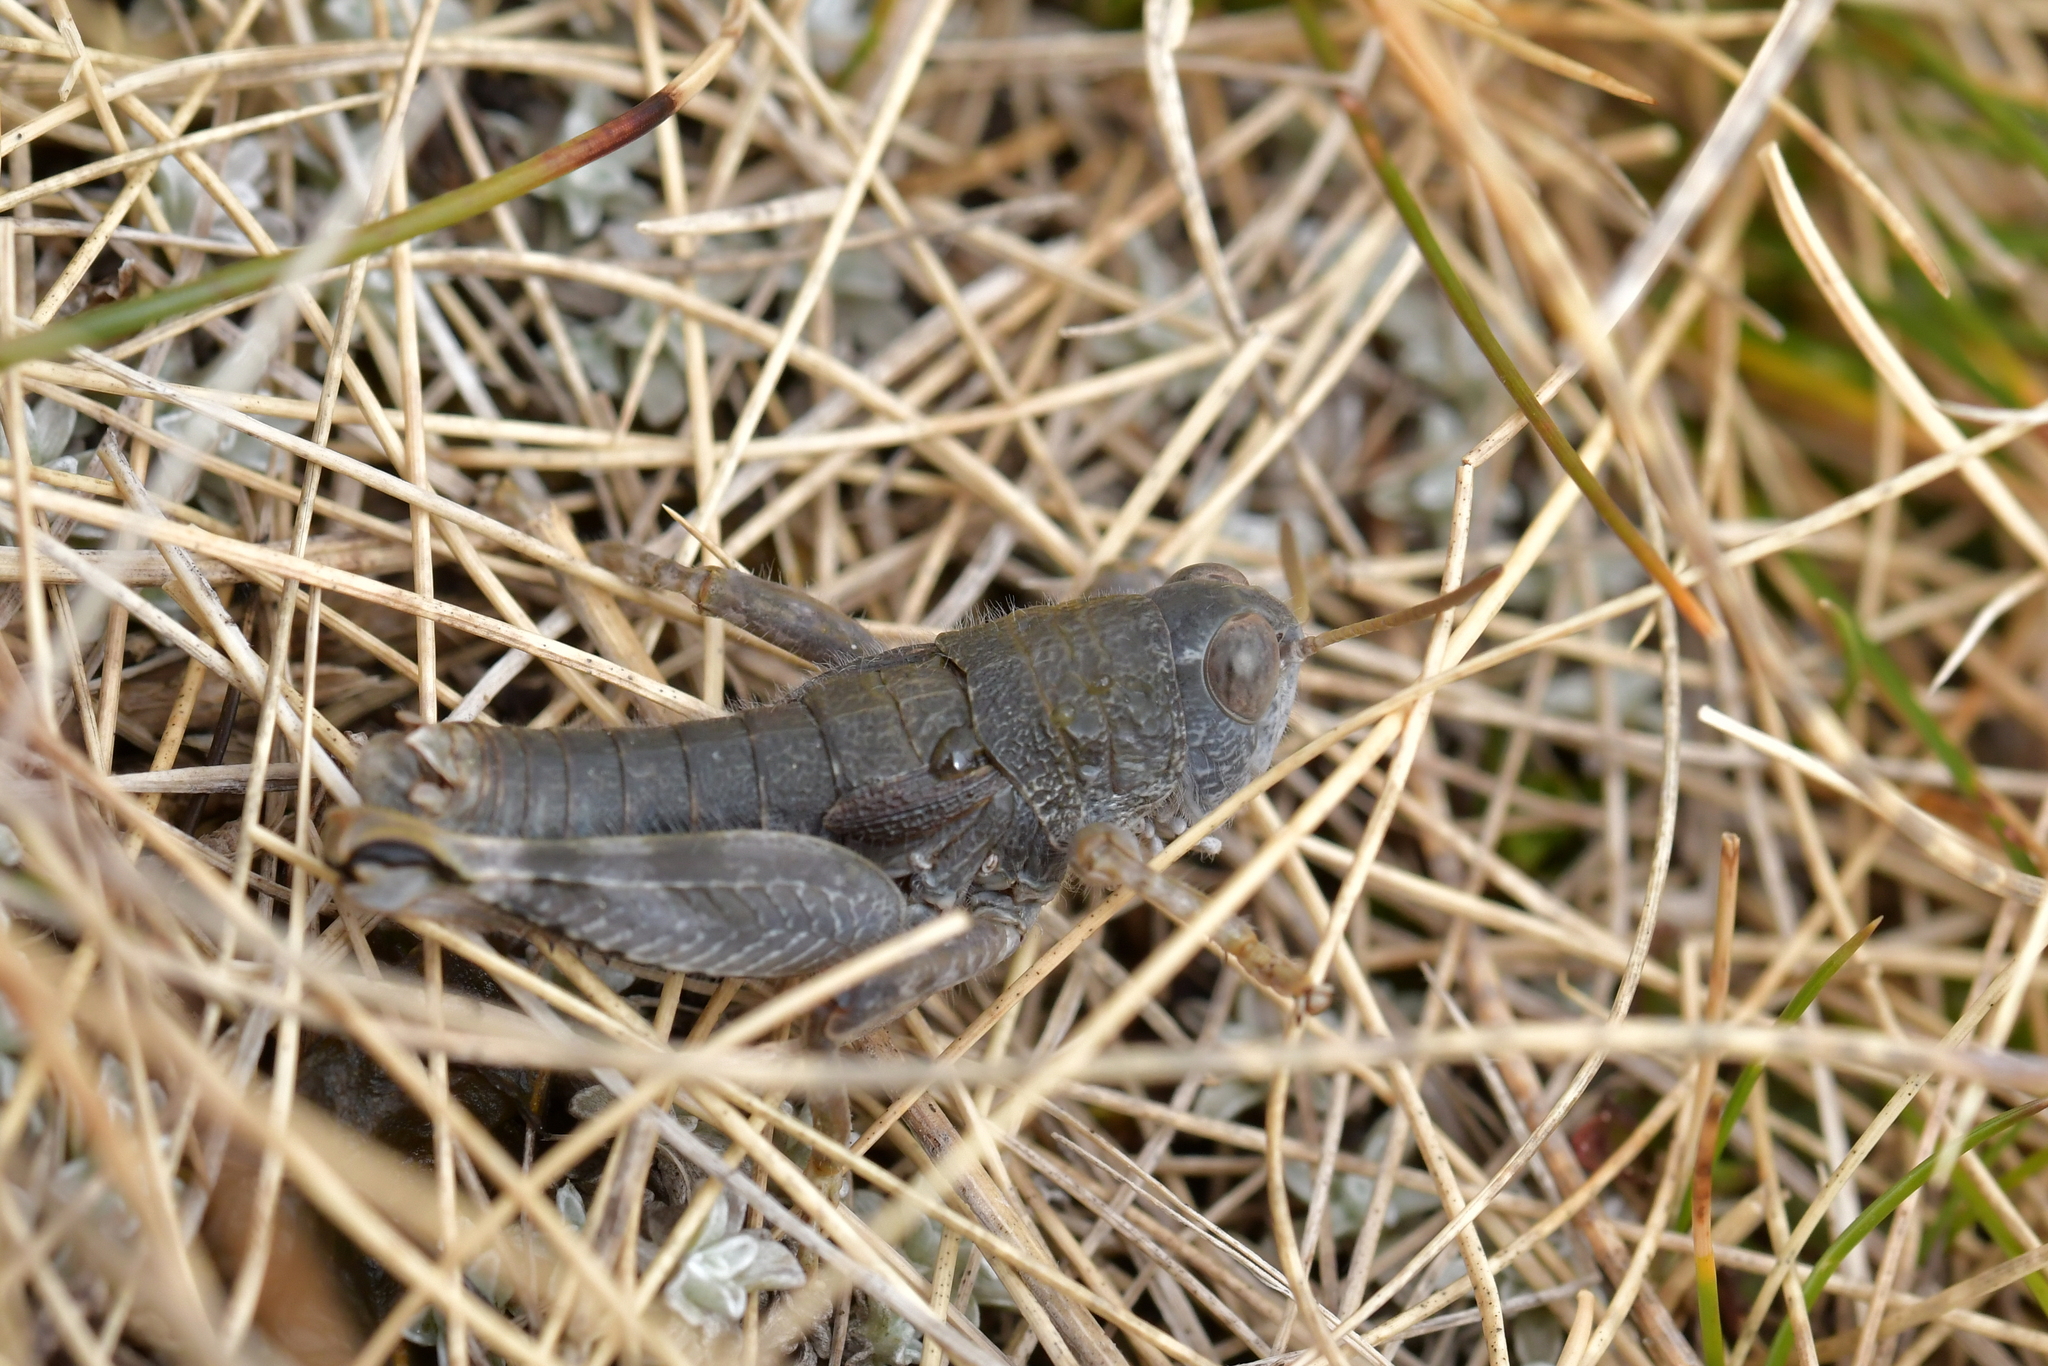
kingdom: Animalia
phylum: Arthropoda
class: Insecta
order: Orthoptera
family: Acrididae
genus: Sigaus
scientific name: Sigaus
